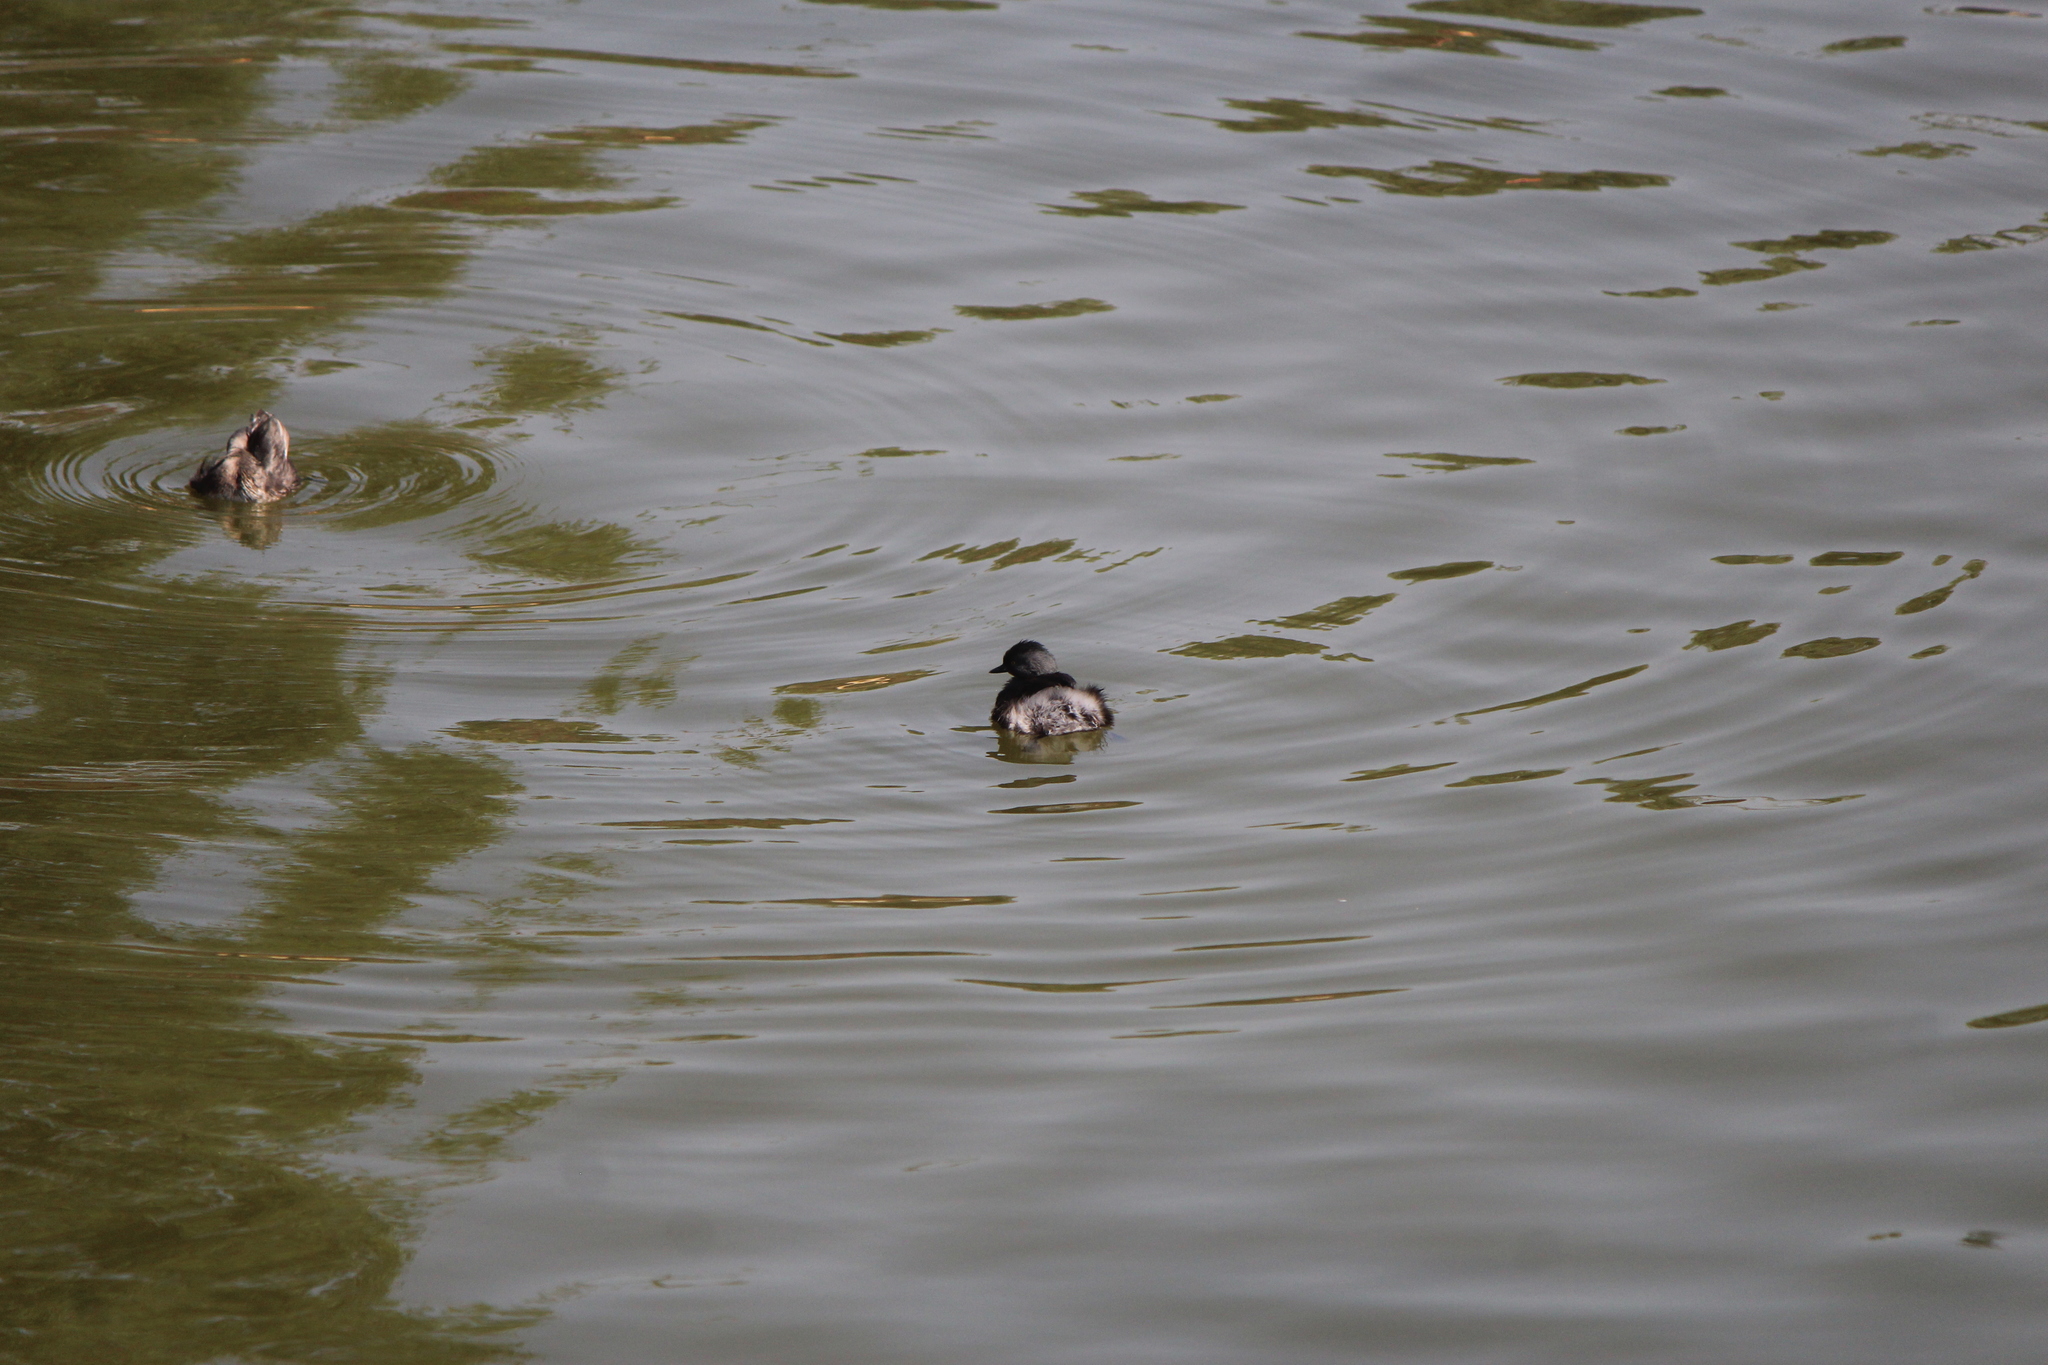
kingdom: Animalia
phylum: Chordata
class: Aves
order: Podicipediformes
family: Podicipedidae
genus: Tachybaptus
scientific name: Tachybaptus dominicus
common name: Least grebe
